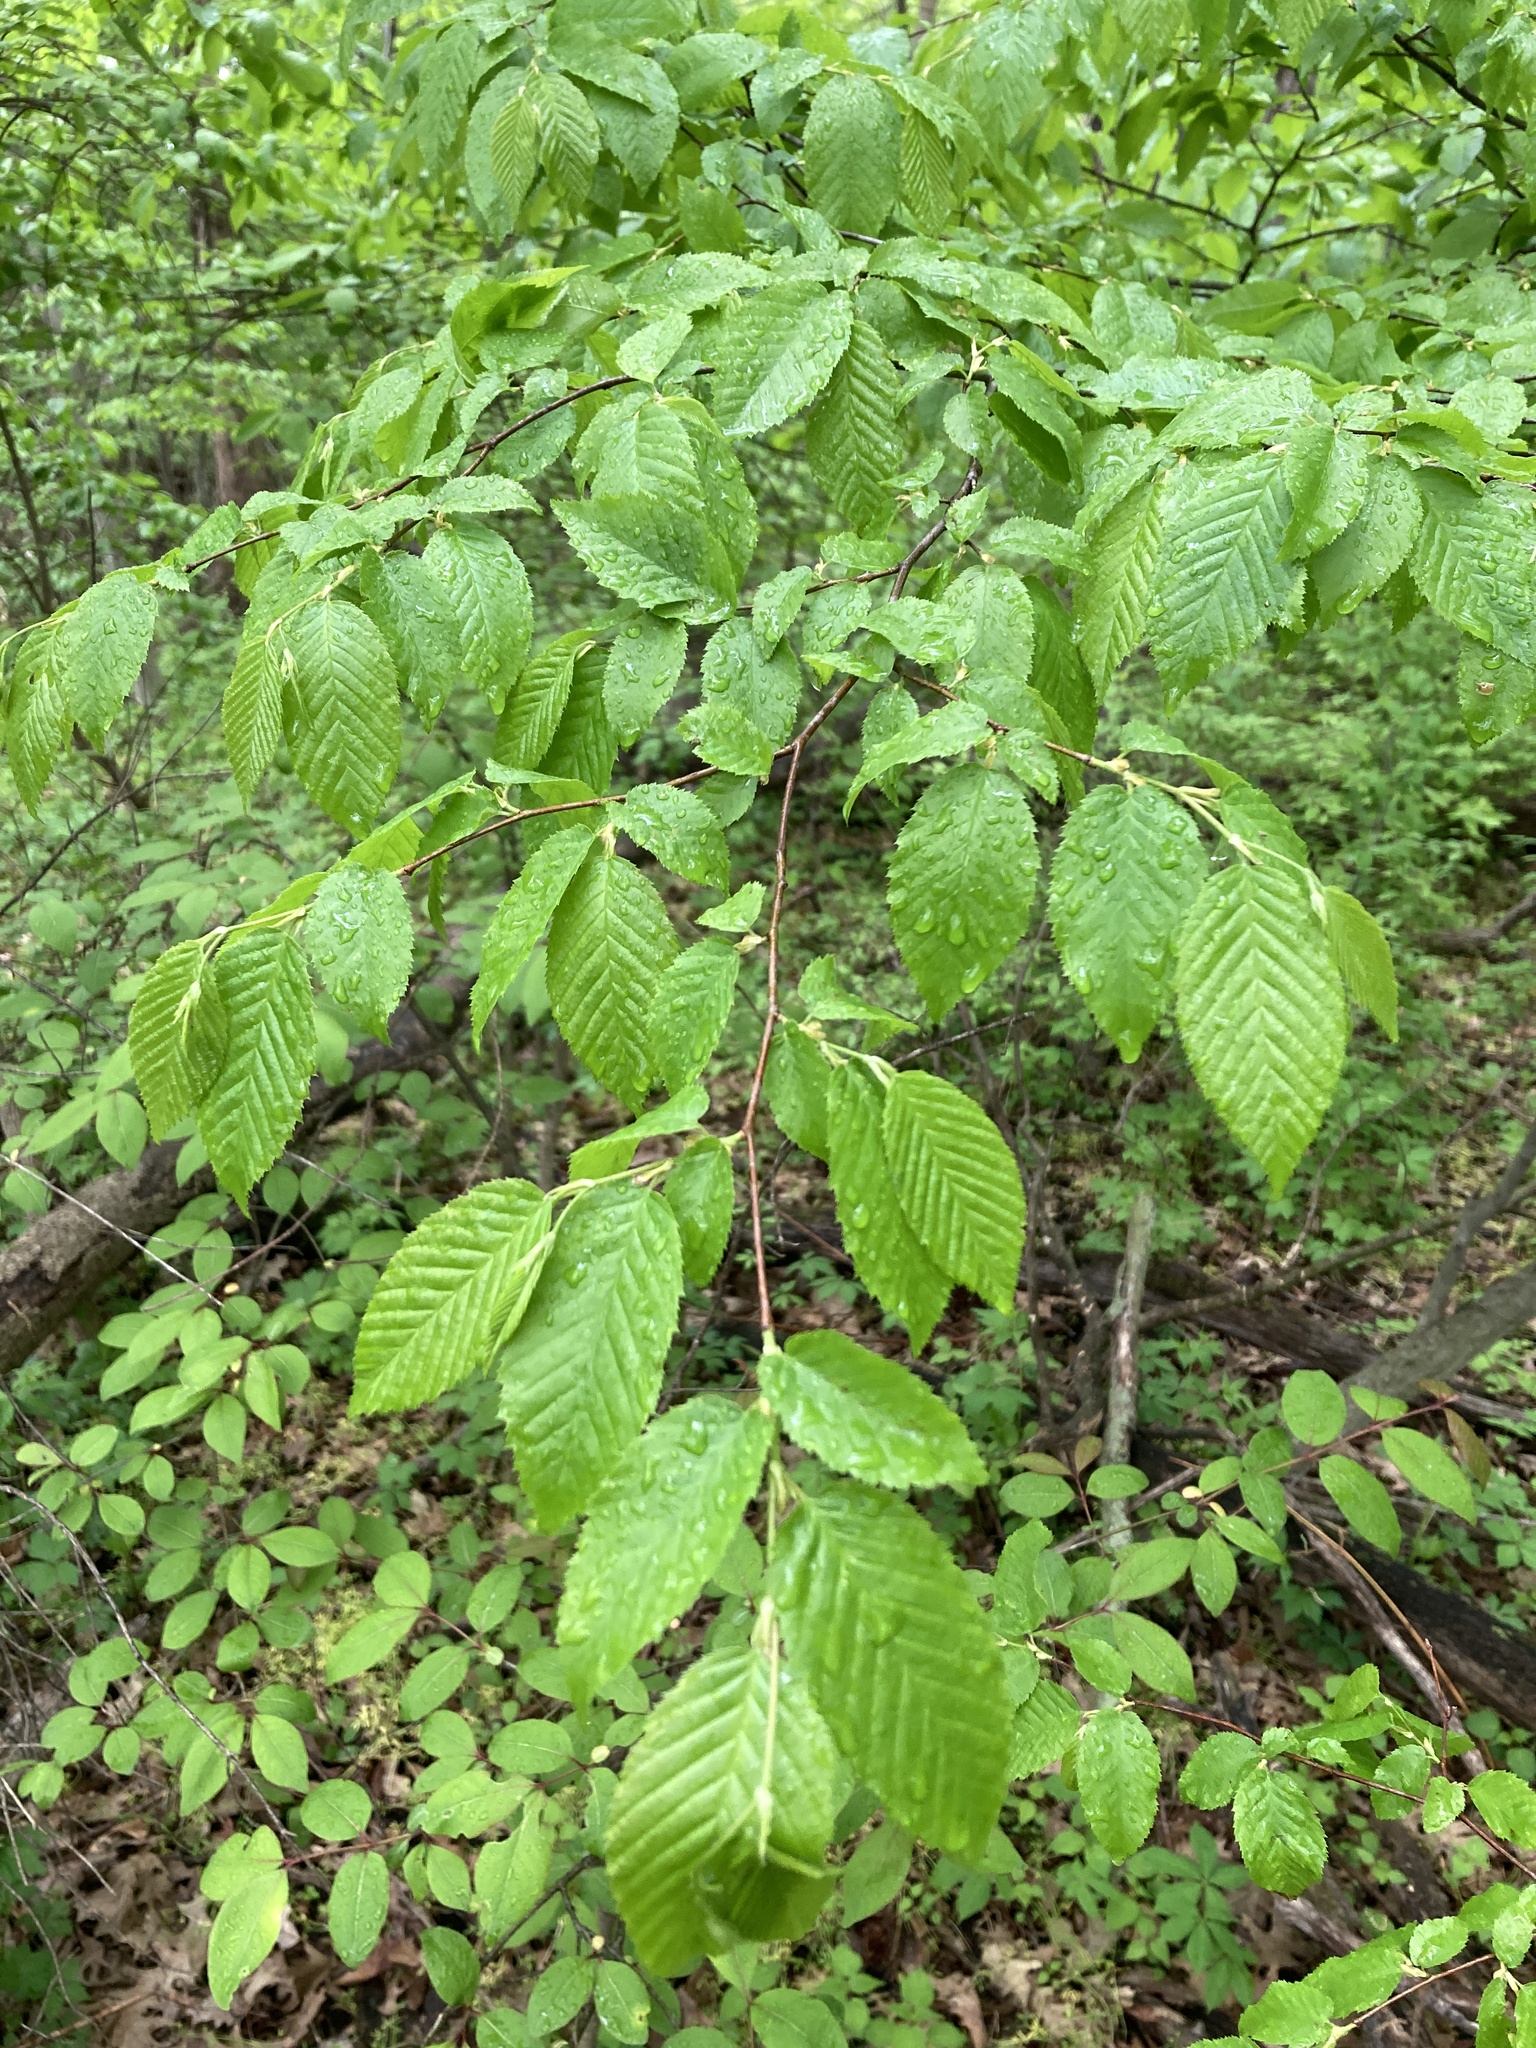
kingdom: Plantae
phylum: Tracheophyta
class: Magnoliopsida
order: Fagales
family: Fagaceae
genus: Fagus
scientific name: Fagus grandifolia
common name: American beech
